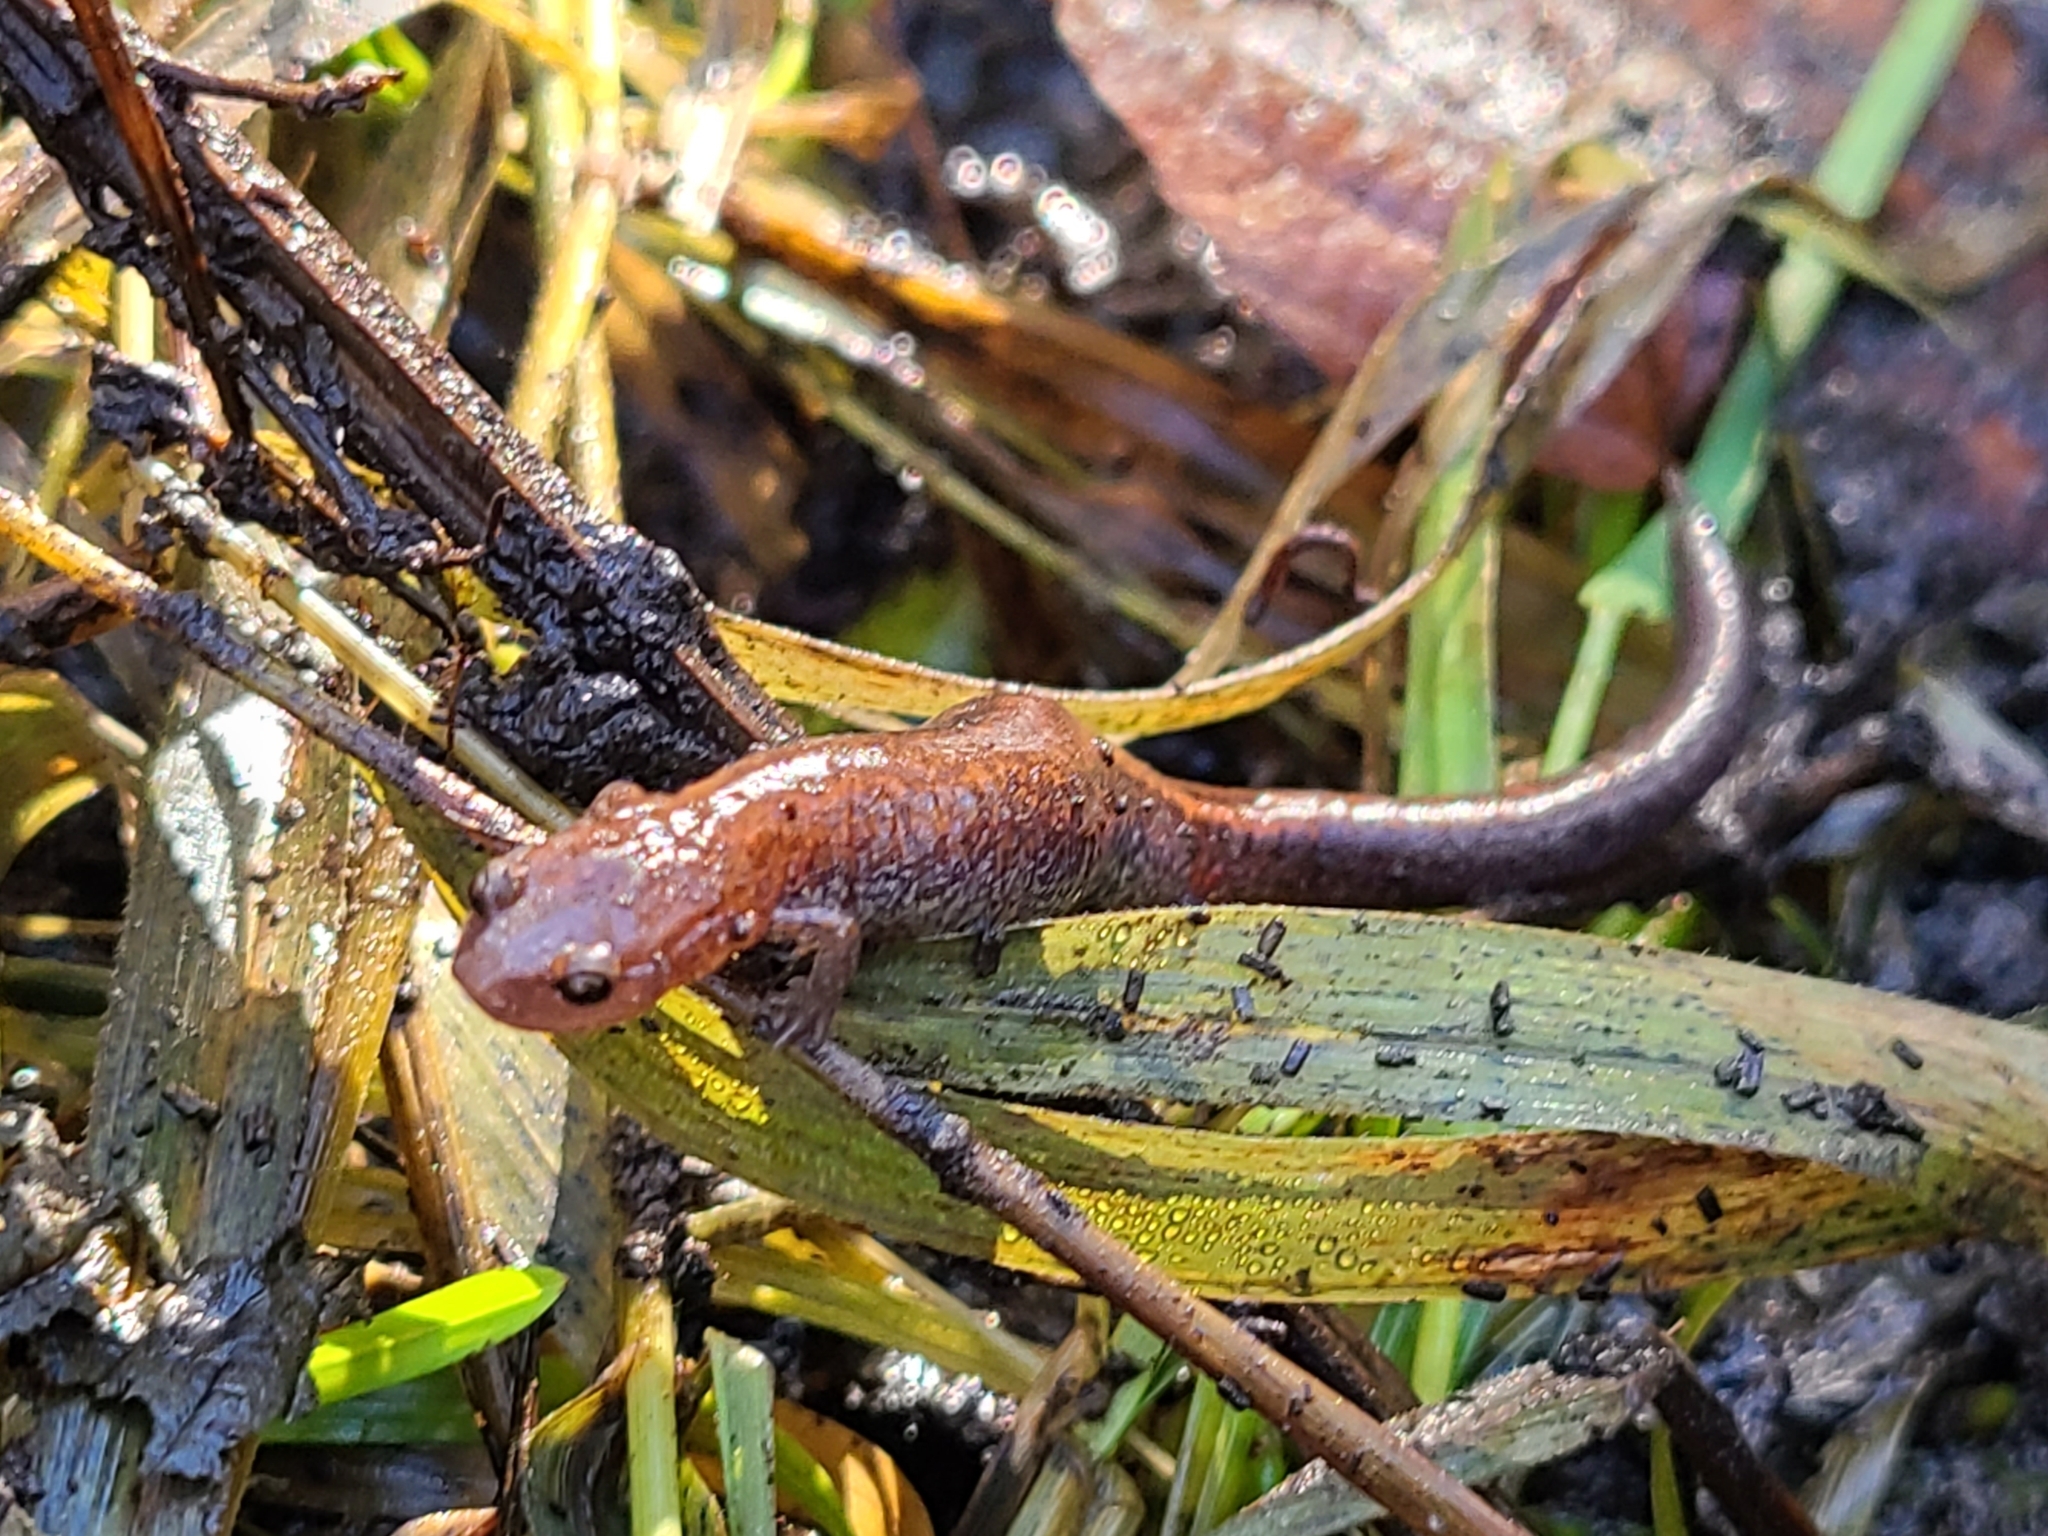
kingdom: Animalia
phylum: Chordata
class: Amphibia
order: Caudata
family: Plethodontidae
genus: Plethodon
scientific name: Plethodon cinereus
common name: Redback salamander
